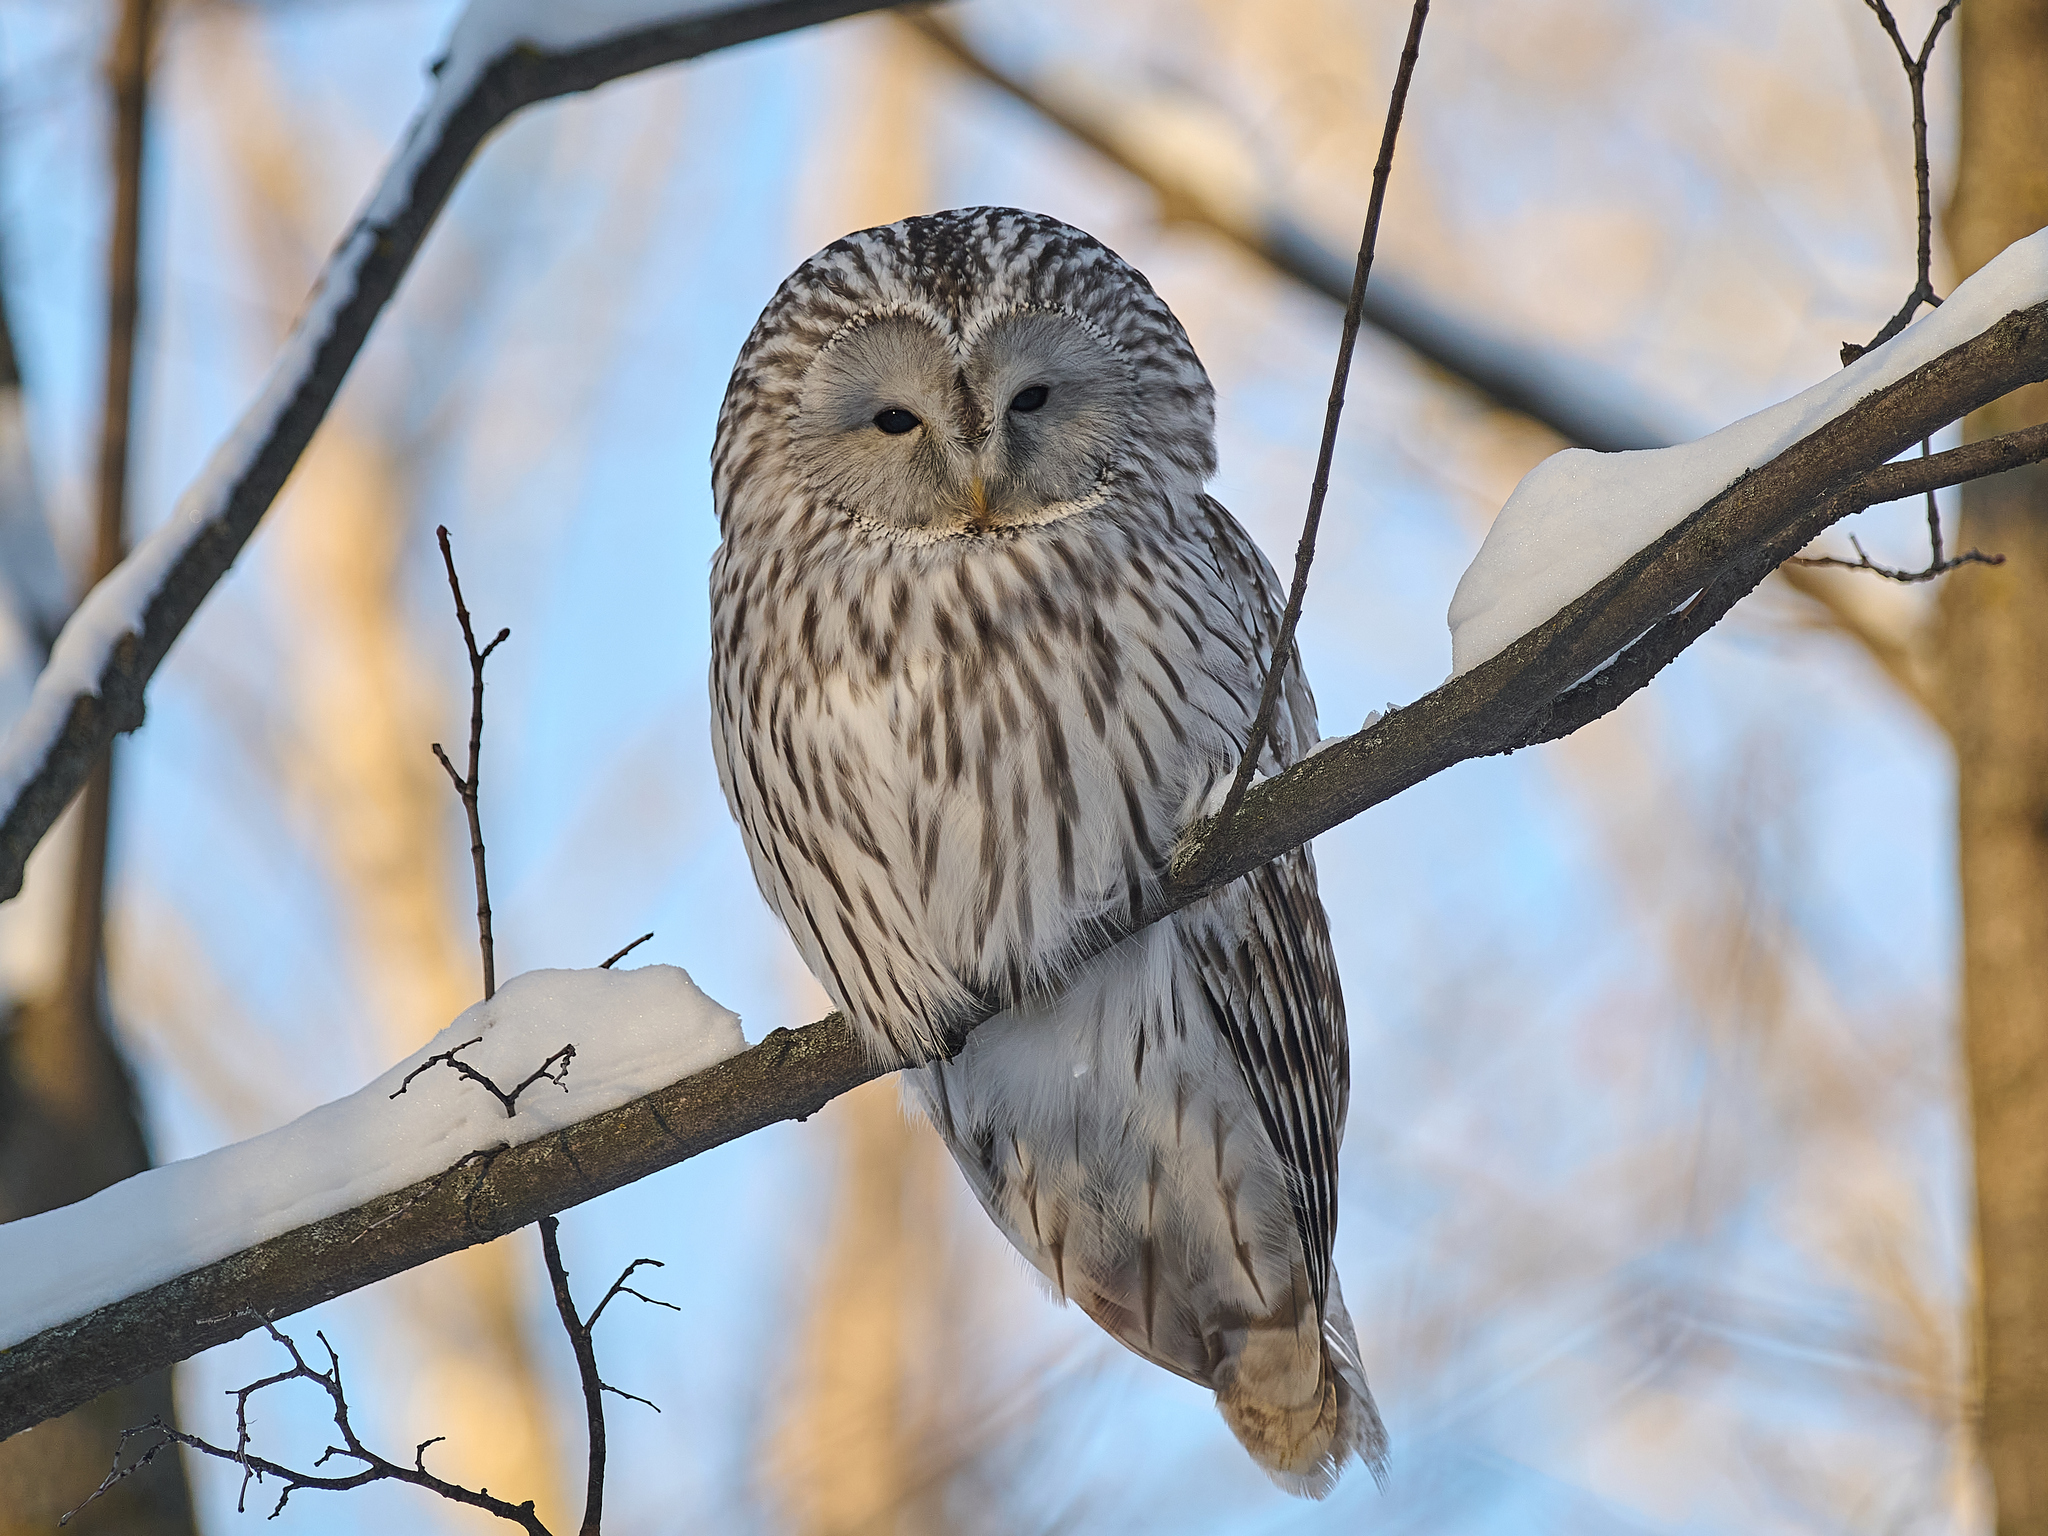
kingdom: Animalia
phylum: Chordata
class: Aves
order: Strigiformes
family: Strigidae
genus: Strix
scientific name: Strix uralensis
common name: Ural owl
